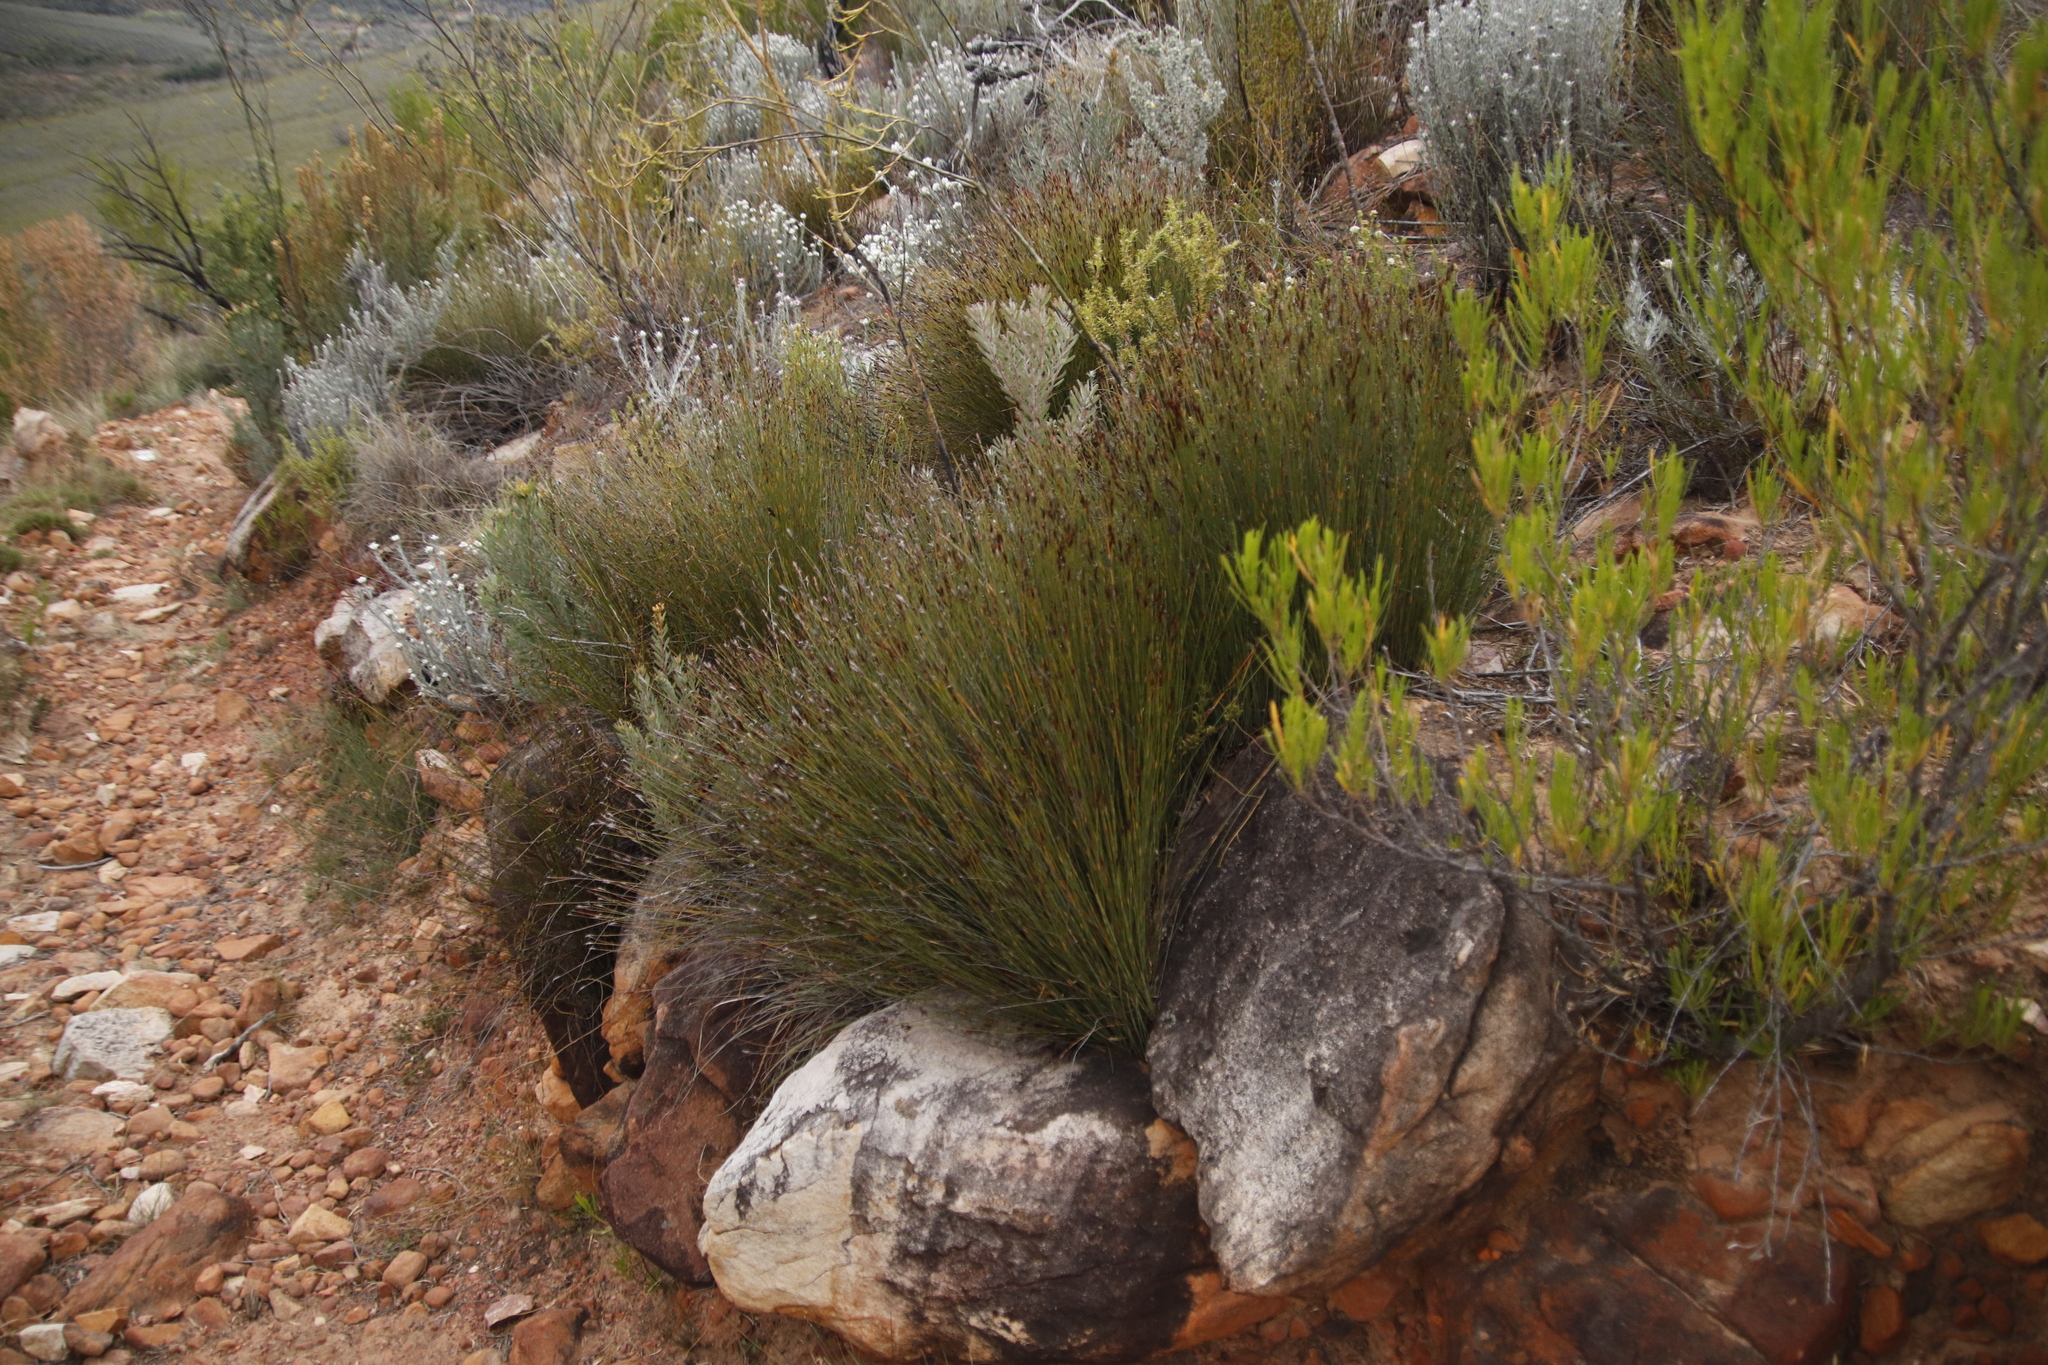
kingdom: Plantae
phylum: Tracheophyta
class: Liliopsida
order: Poales
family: Restionaceae
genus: Hypodiscus
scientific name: Hypodiscus striatus
